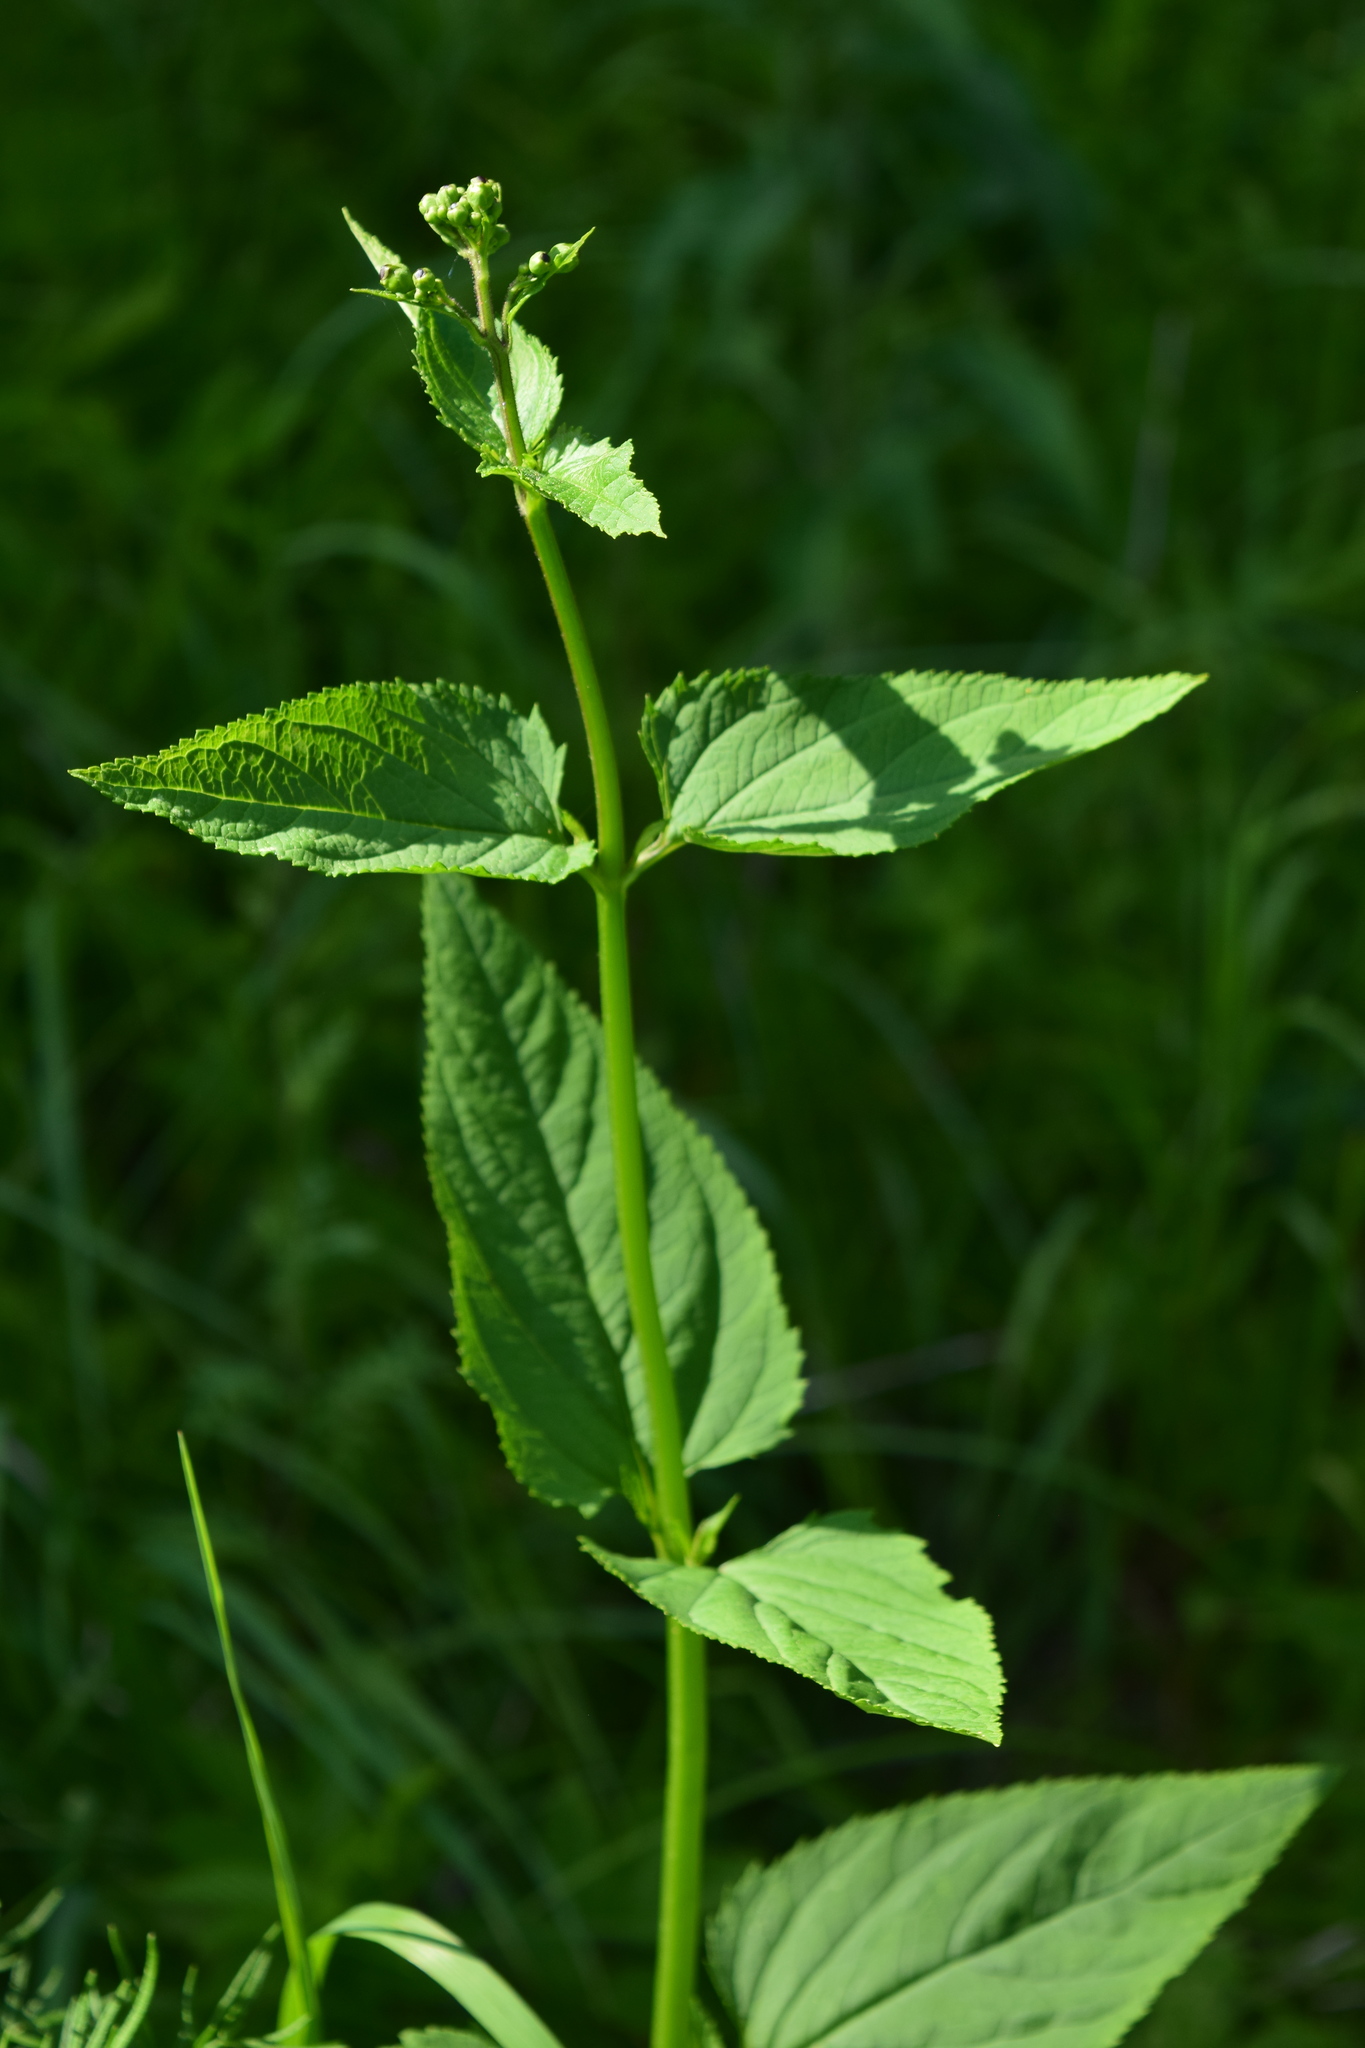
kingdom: Plantae
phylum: Tracheophyta
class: Magnoliopsida
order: Lamiales
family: Scrophulariaceae
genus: Scrophularia
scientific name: Scrophularia nodosa
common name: Common figwort
